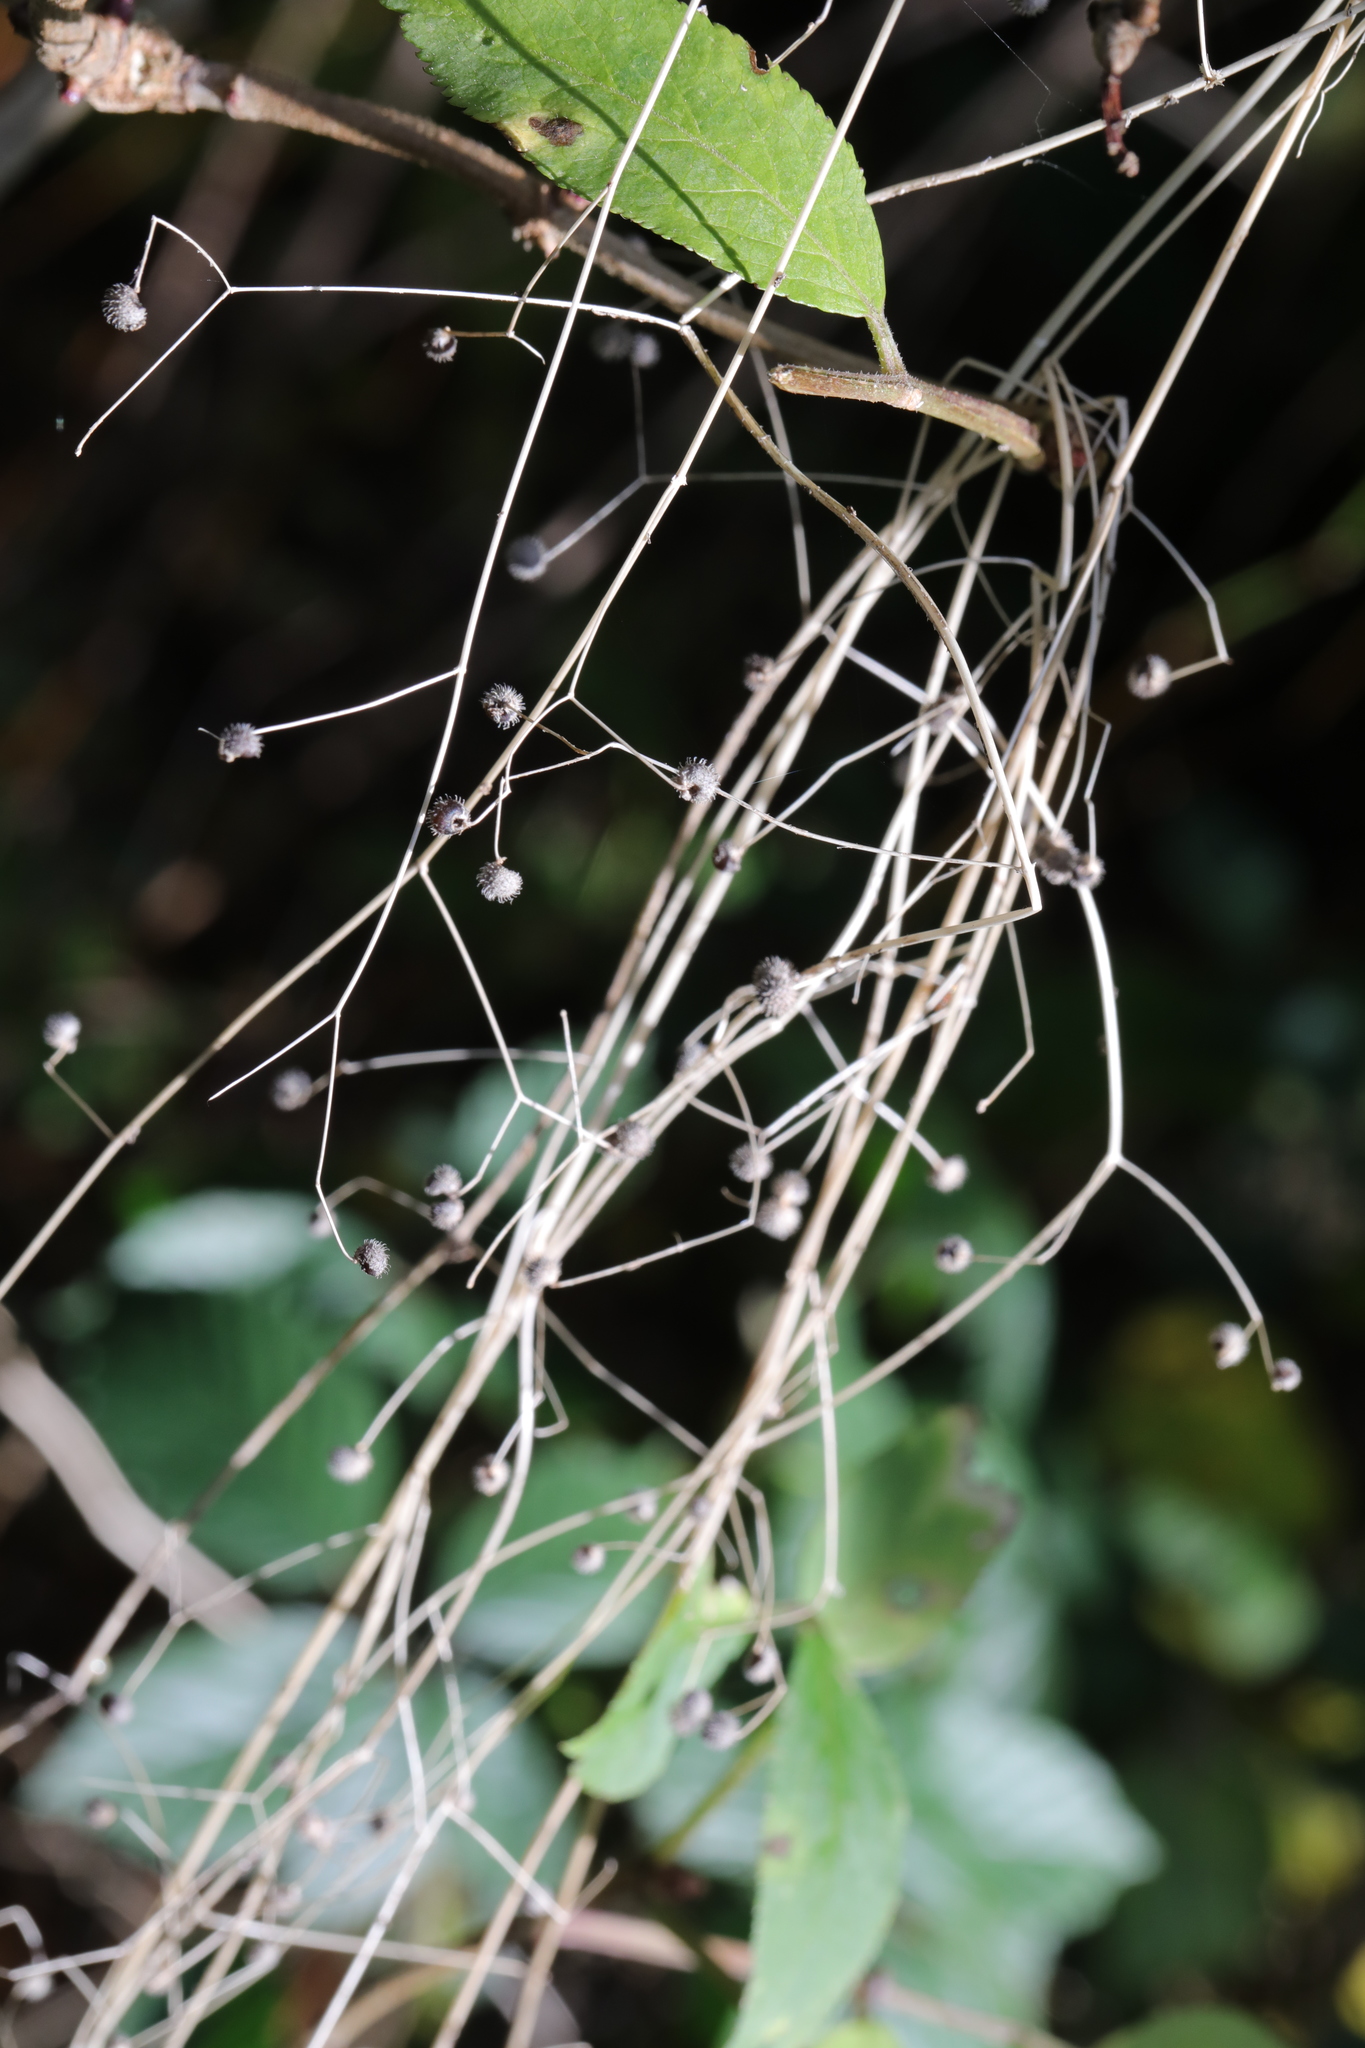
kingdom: Plantae
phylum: Tracheophyta
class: Magnoliopsida
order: Gentianales
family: Rubiaceae
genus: Galium
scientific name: Galium aparine
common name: Cleavers
